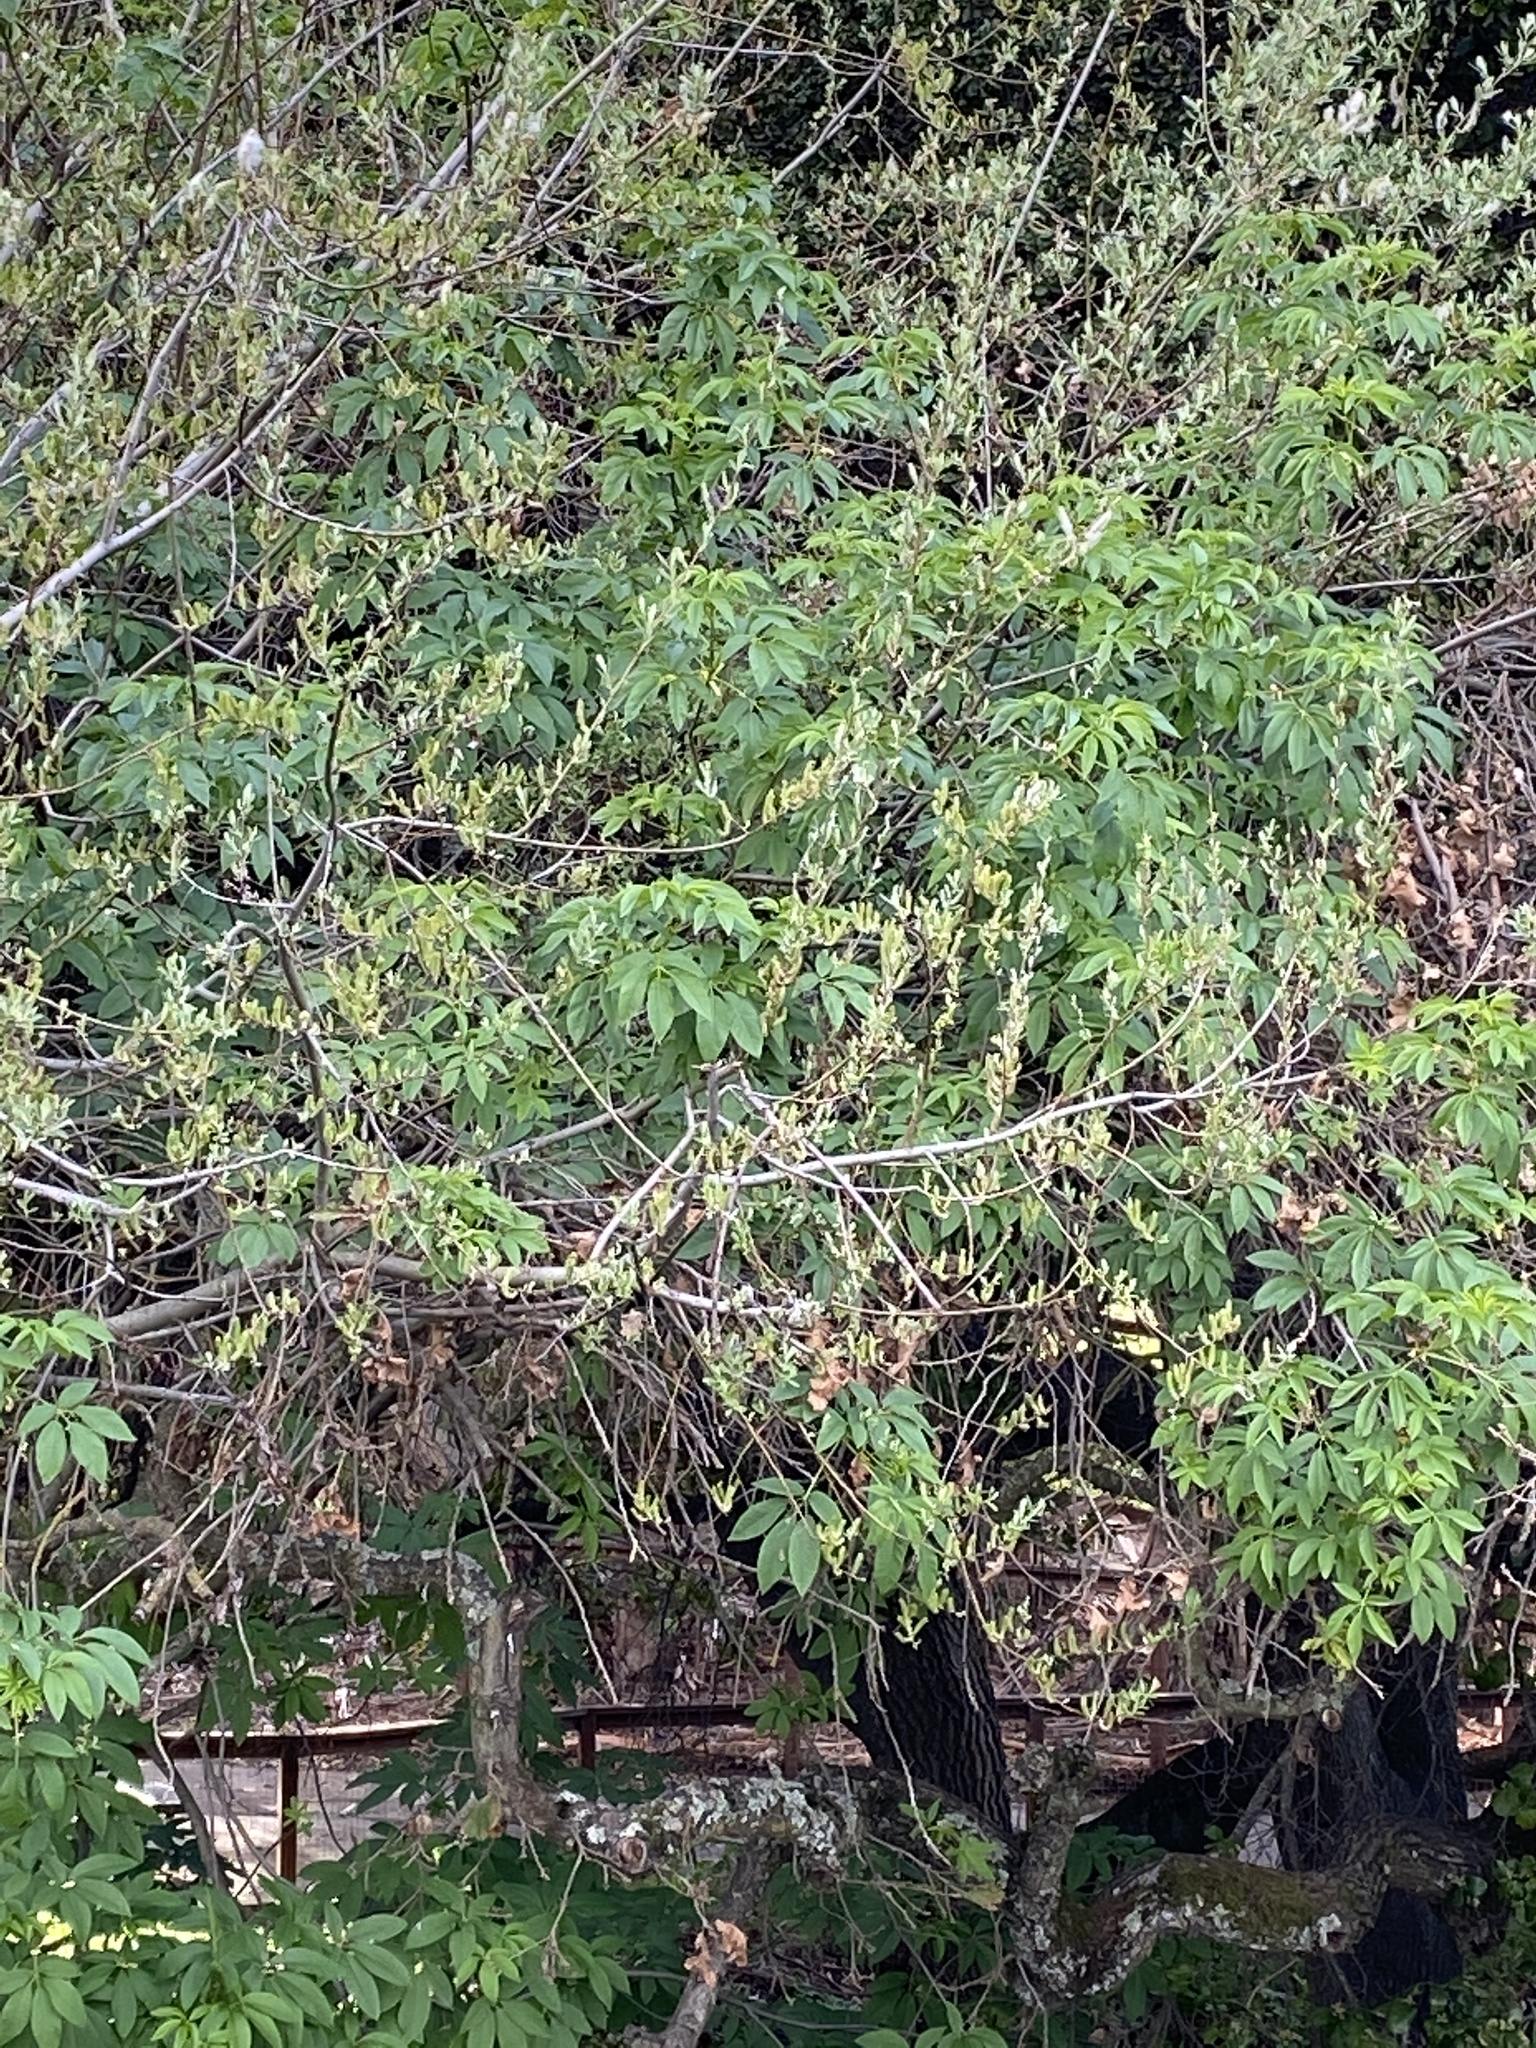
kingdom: Plantae
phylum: Tracheophyta
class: Magnoliopsida
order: Sapindales
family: Sapindaceae
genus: Aesculus
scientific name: Aesculus californica
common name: California buckeye
